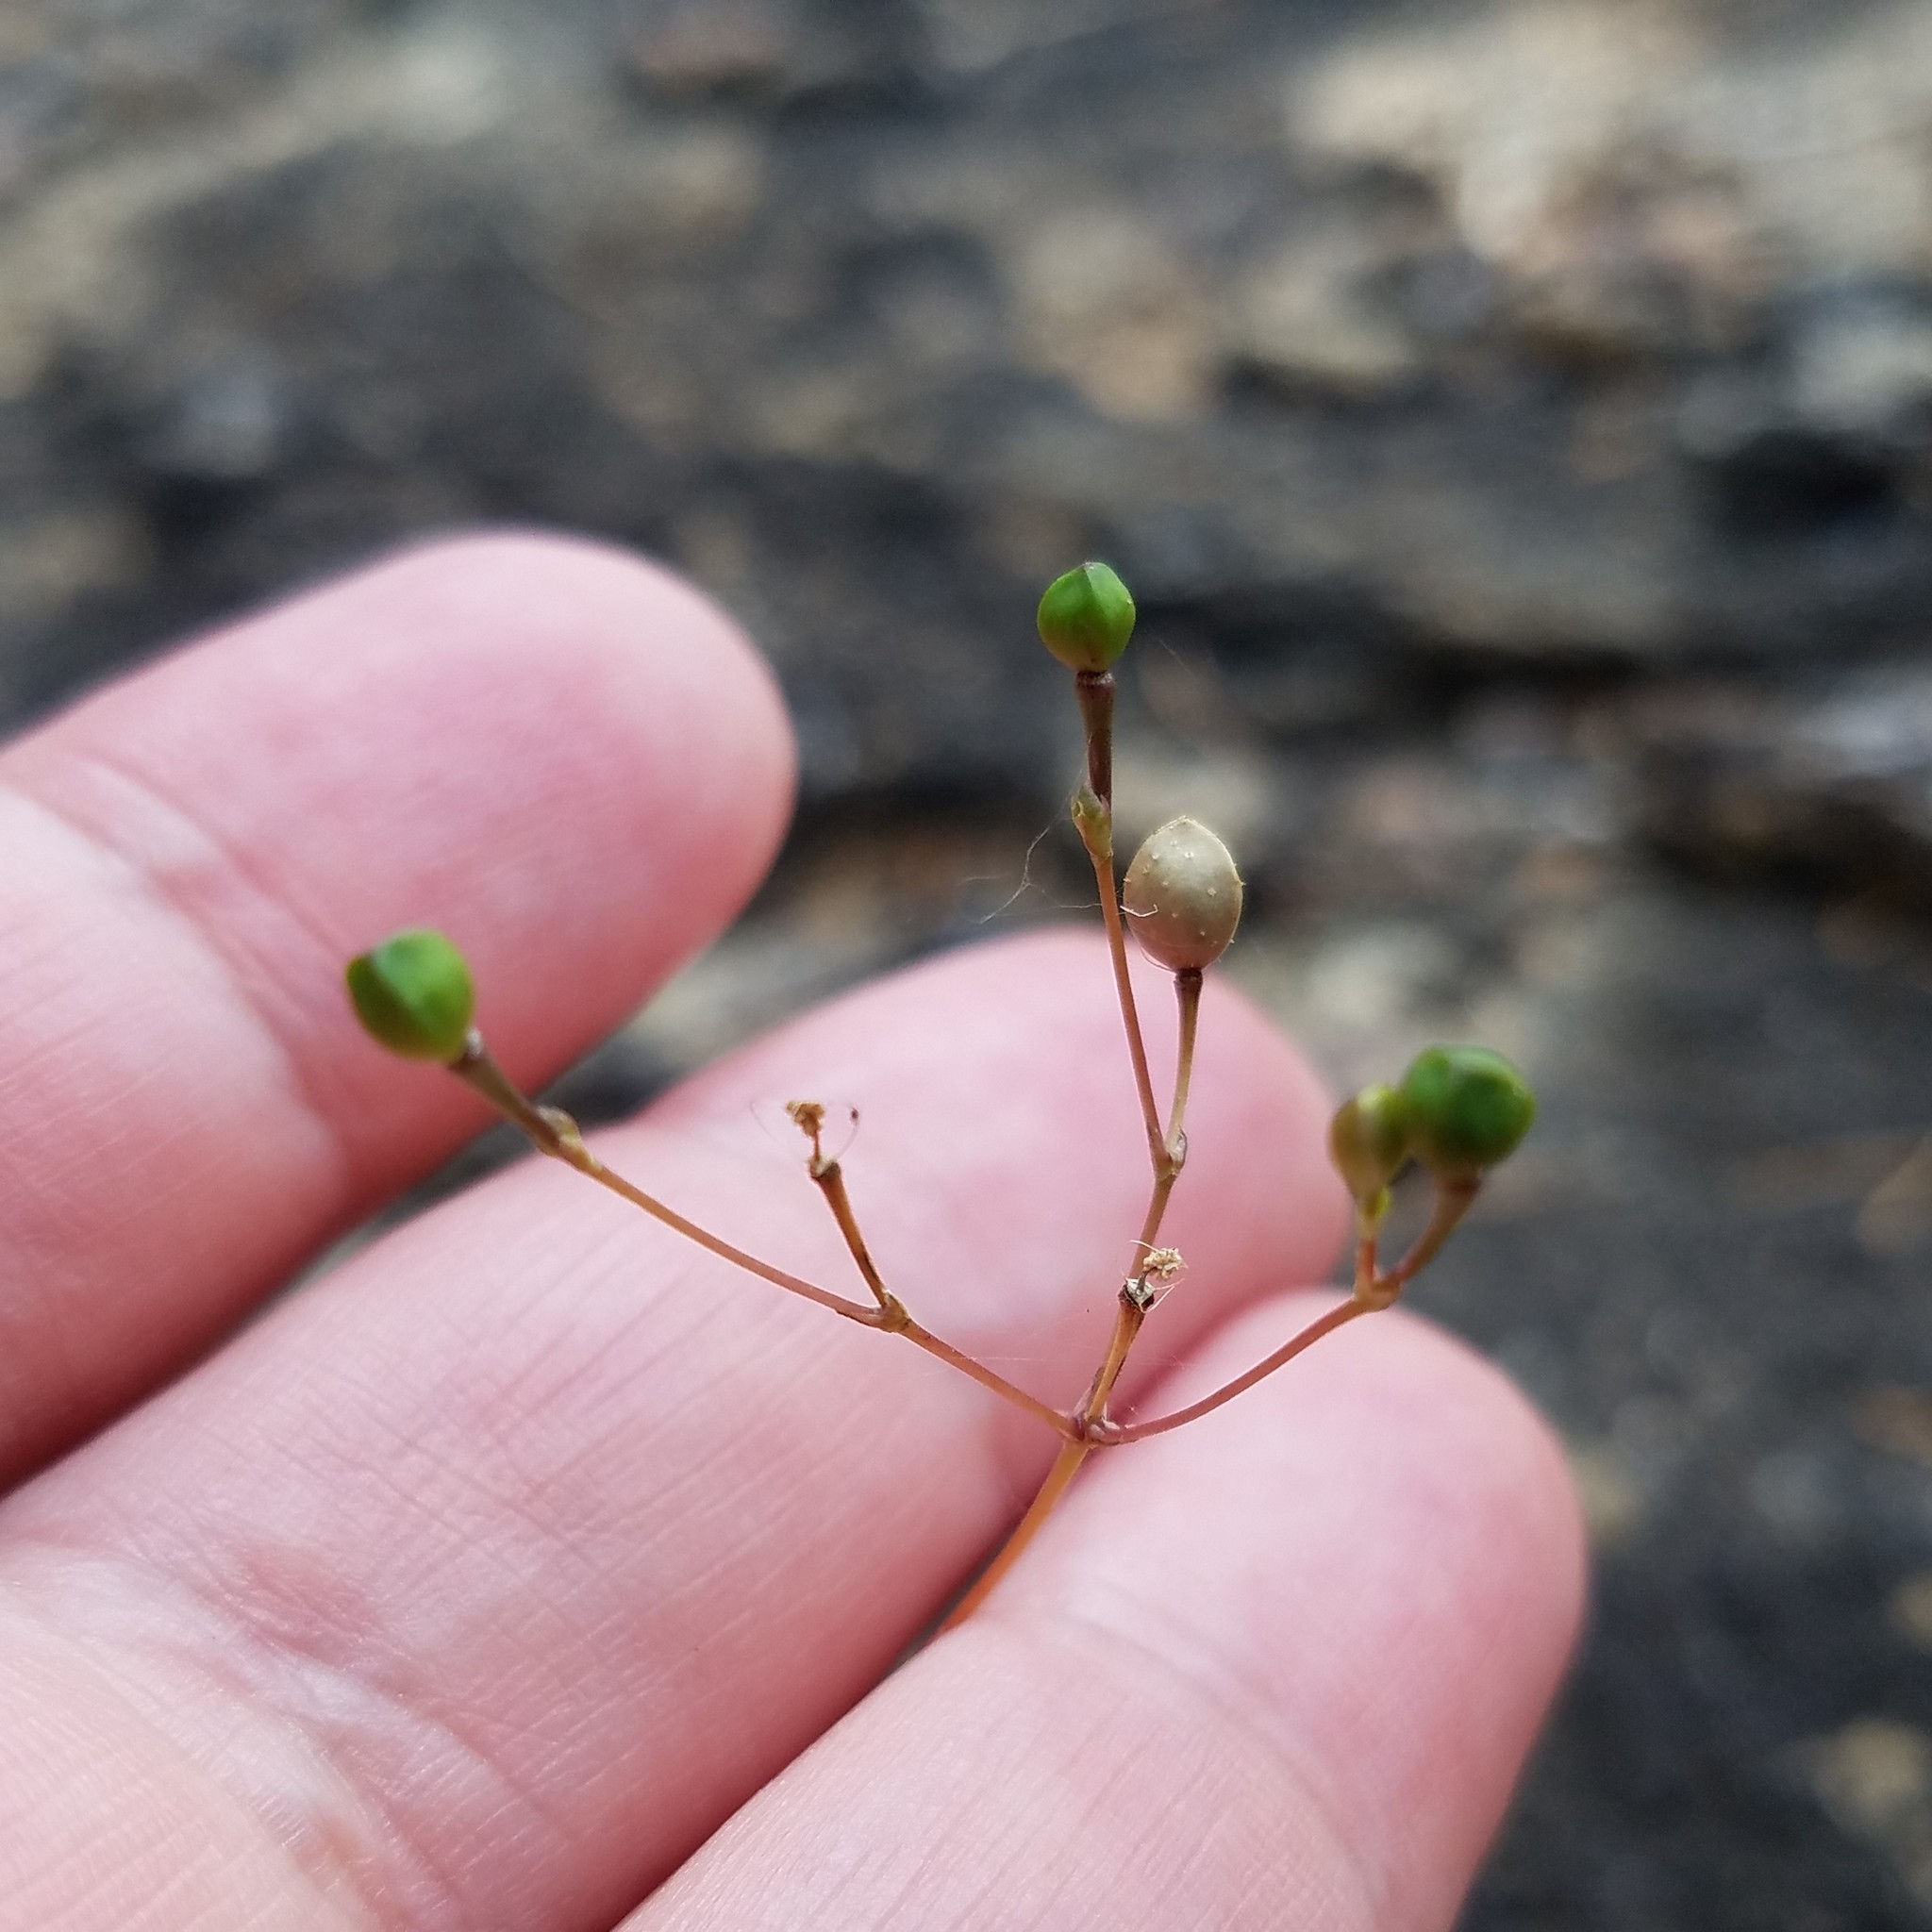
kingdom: Plantae
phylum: Tracheophyta
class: Magnoliopsida
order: Caryophyllales
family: Montiaceae
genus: Phemeranthus
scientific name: Phemeranthus teretifolius
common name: Quill fameflower
